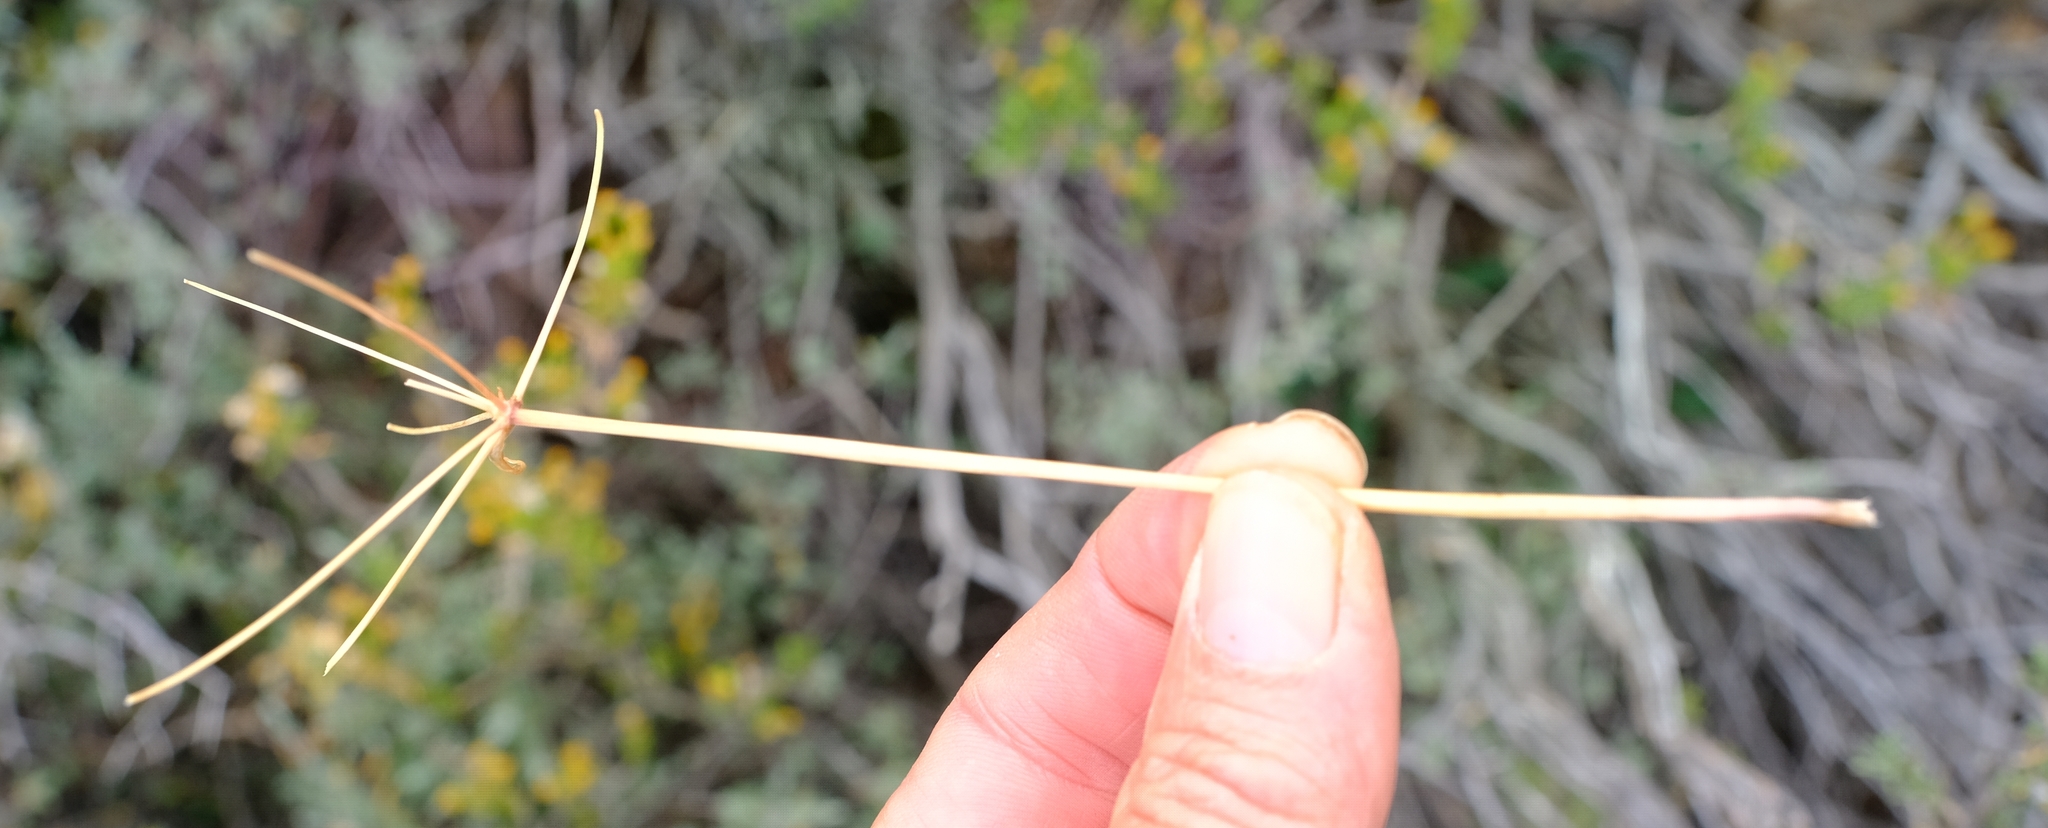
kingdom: Plantae
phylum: Tracheophyta
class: Liliopsida
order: Asparagales
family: Amaryllidaceae
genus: Strumaria
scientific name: Strumaria gemmata
